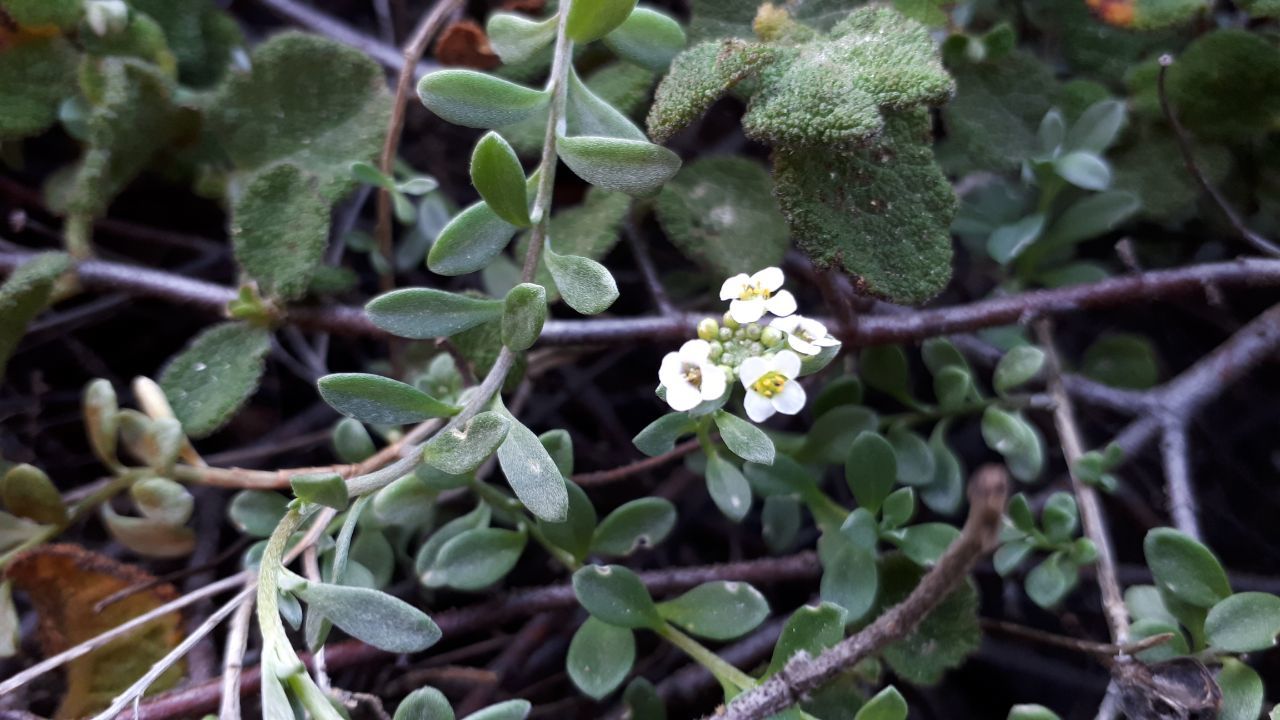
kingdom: Plantae
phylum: Tracheophyta
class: Magnoliopsida
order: Brassicales
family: Brassicaceae
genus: Lobularia
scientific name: Lobularia maritima
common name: Sweet alison
